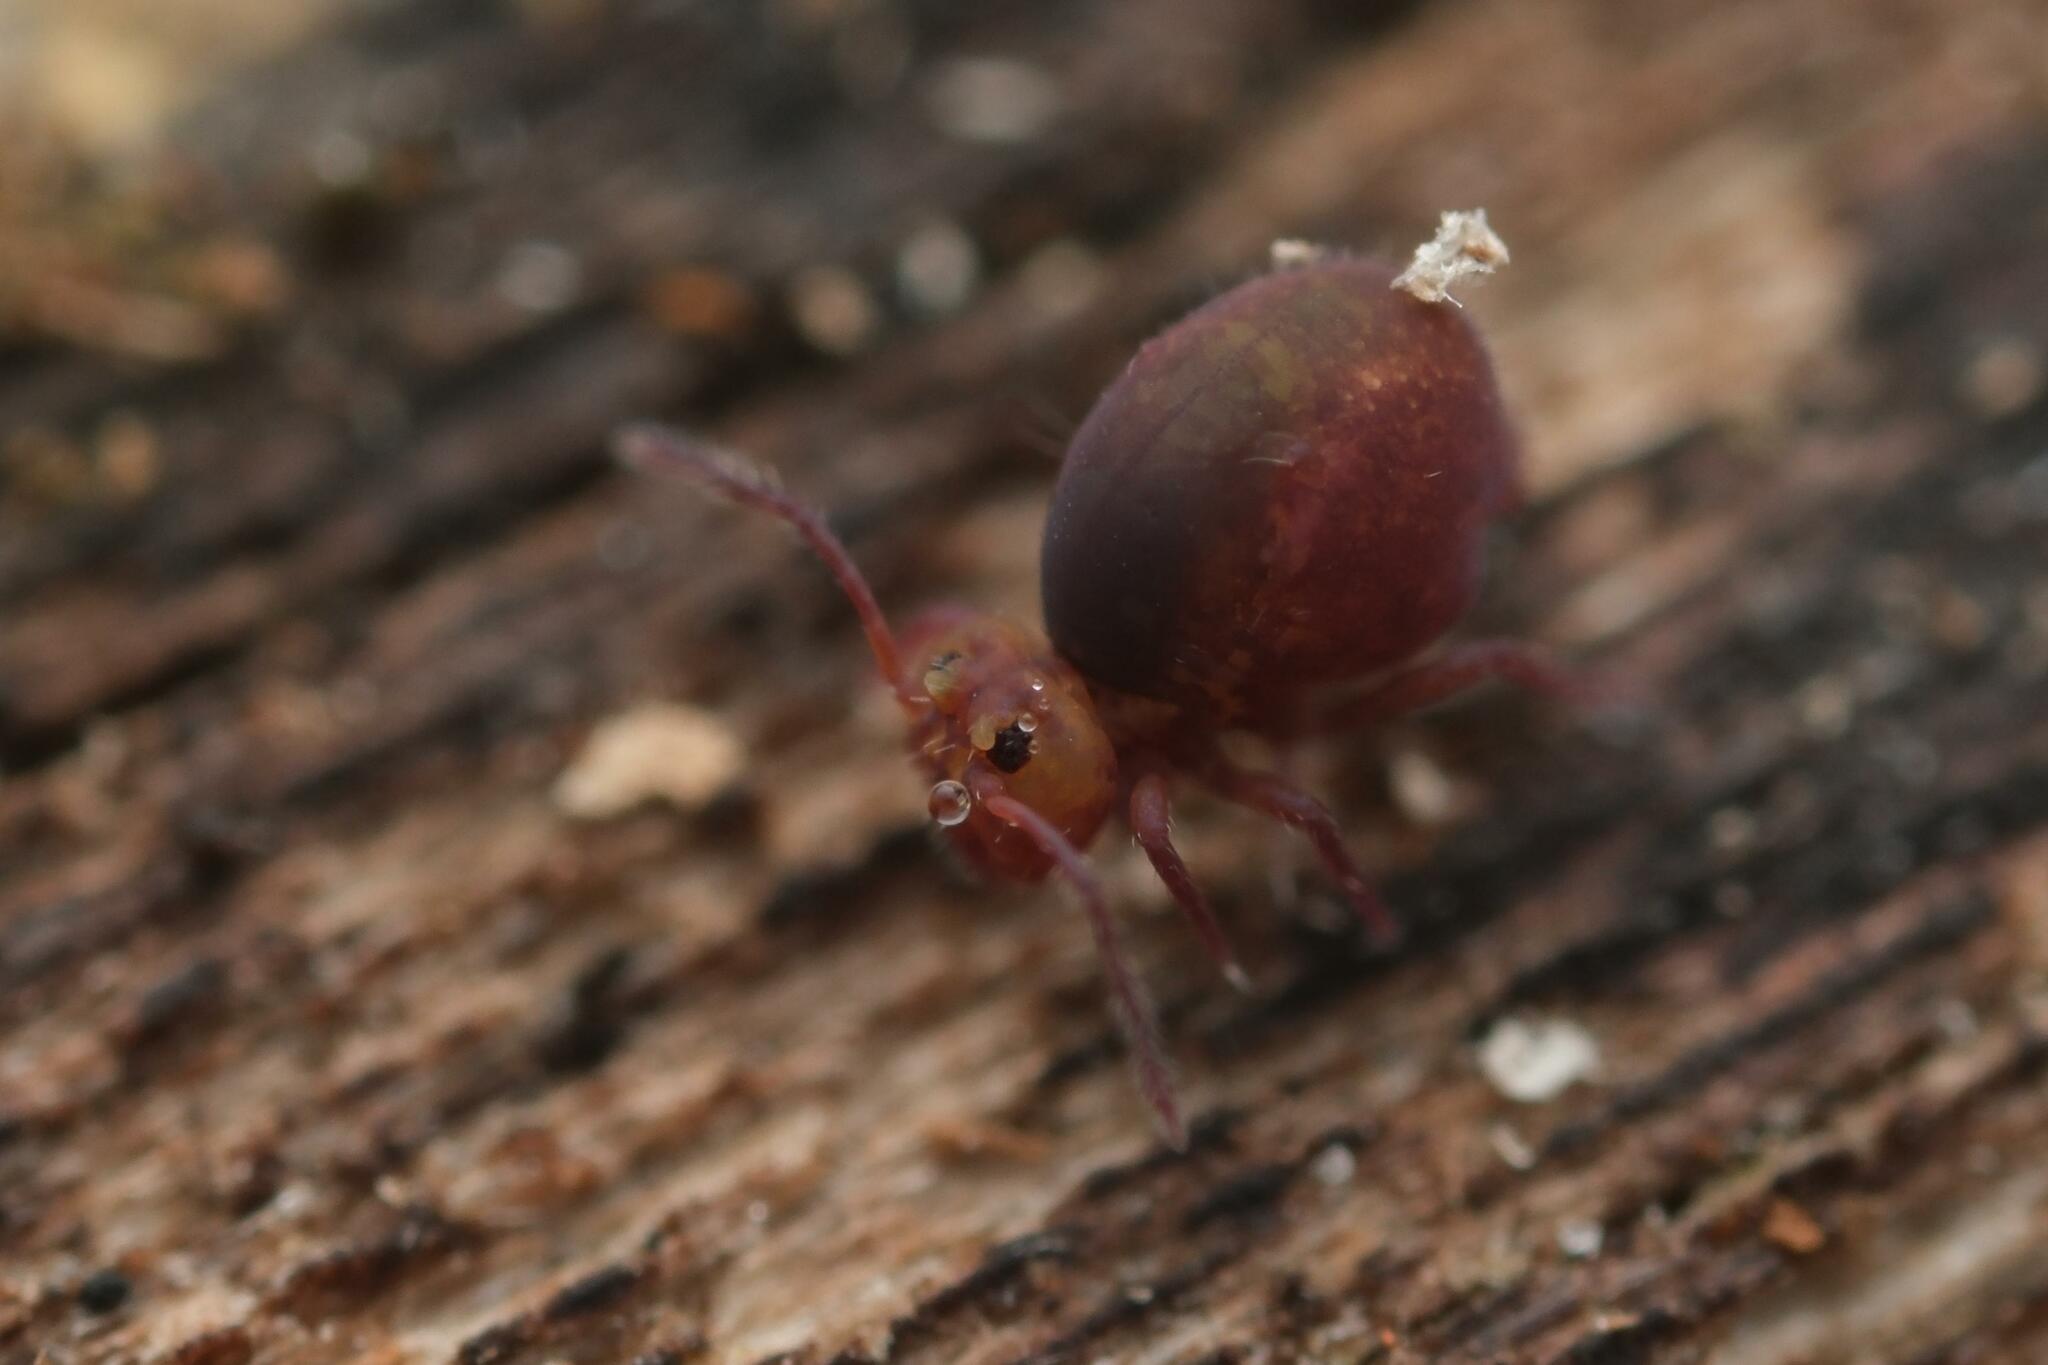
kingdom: Animalia
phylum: Arthropoda
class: Collembola
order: Symphypleona
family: Dicyrtomidae
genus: Dicyrtoma
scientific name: Dicyrtoma fusca
